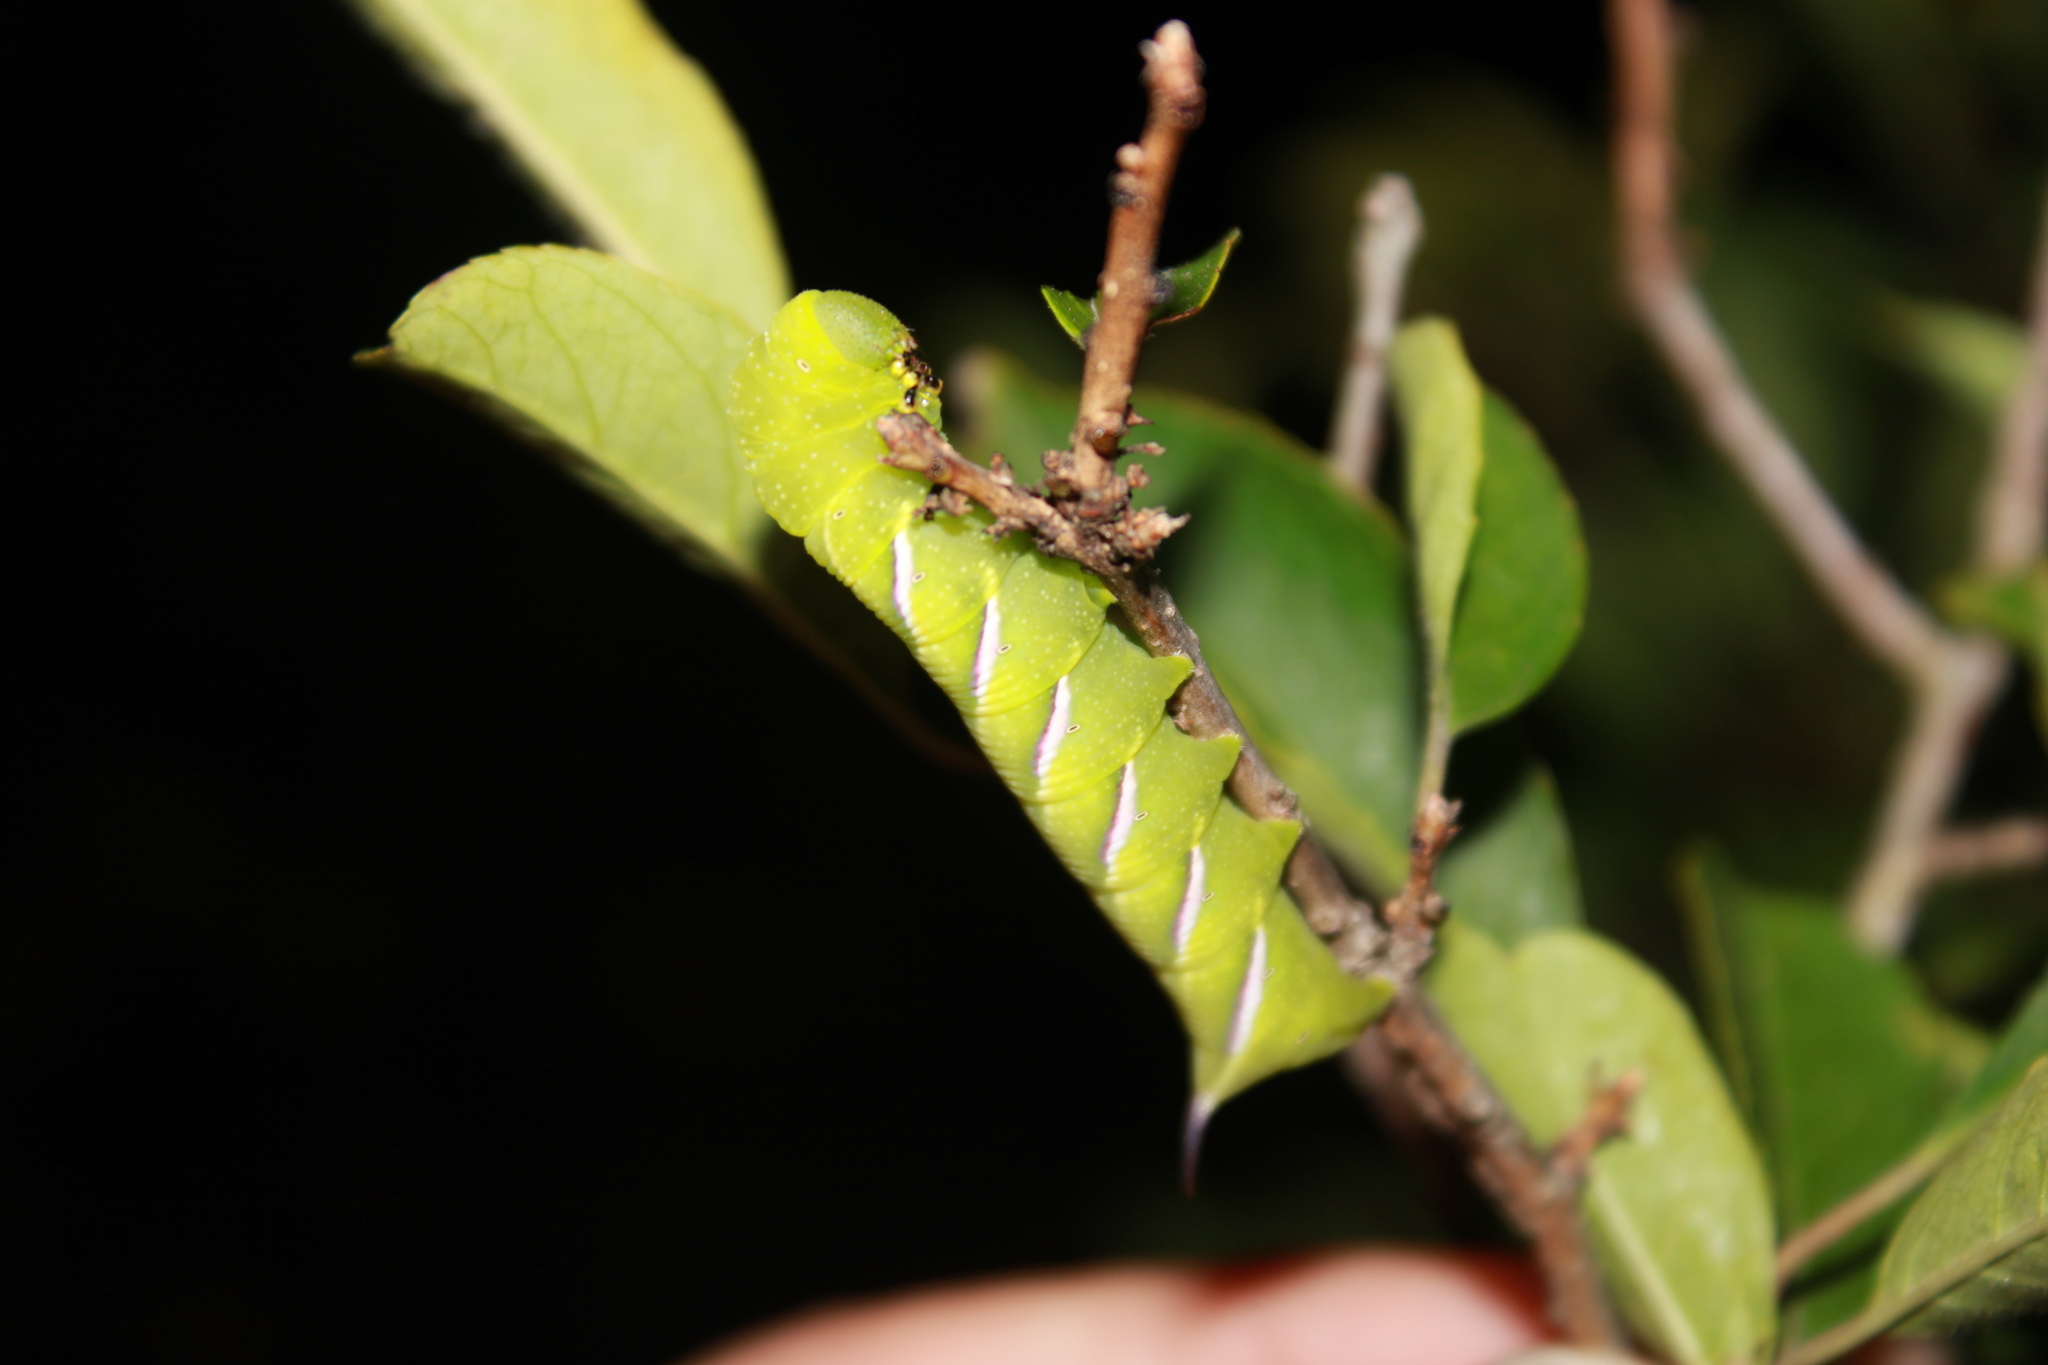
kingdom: Animalia
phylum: Arthropoda
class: Insecta
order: Lepidoptera
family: Sphingidae
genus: Dolba
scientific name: Dolba hyloeus
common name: Pawpaw sphinx
